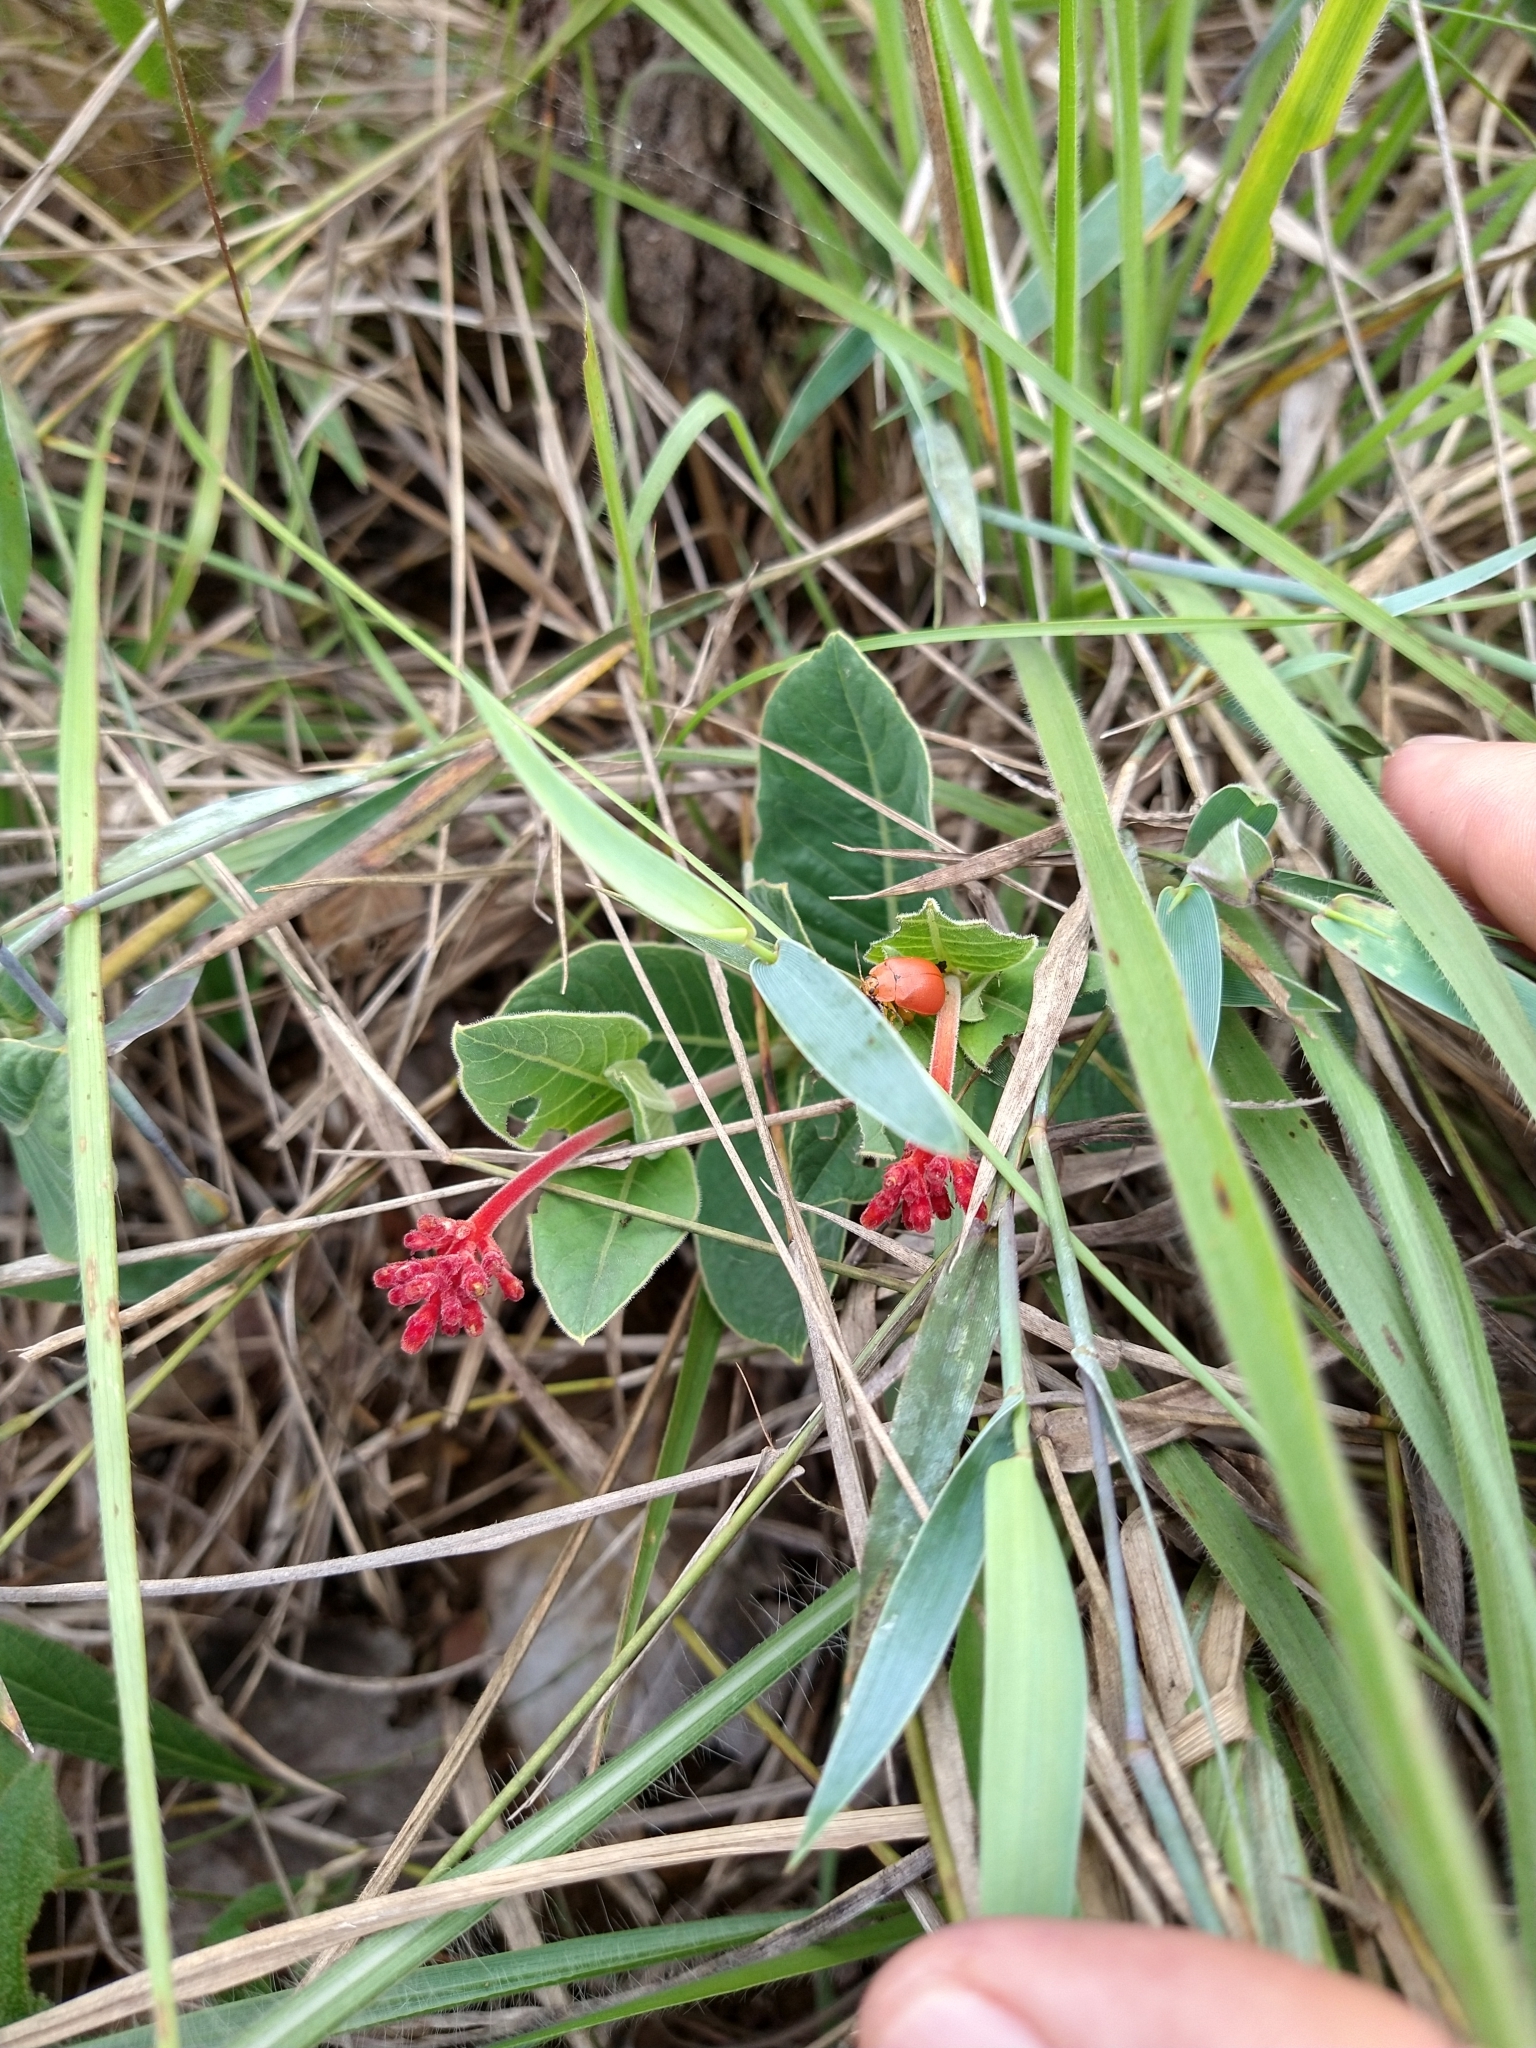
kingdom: Plantae
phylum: Tracheophyta
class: Magnoliopsida
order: Gentianales
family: Rubiaceae
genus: Palicourea
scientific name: Palicourea officinalis
